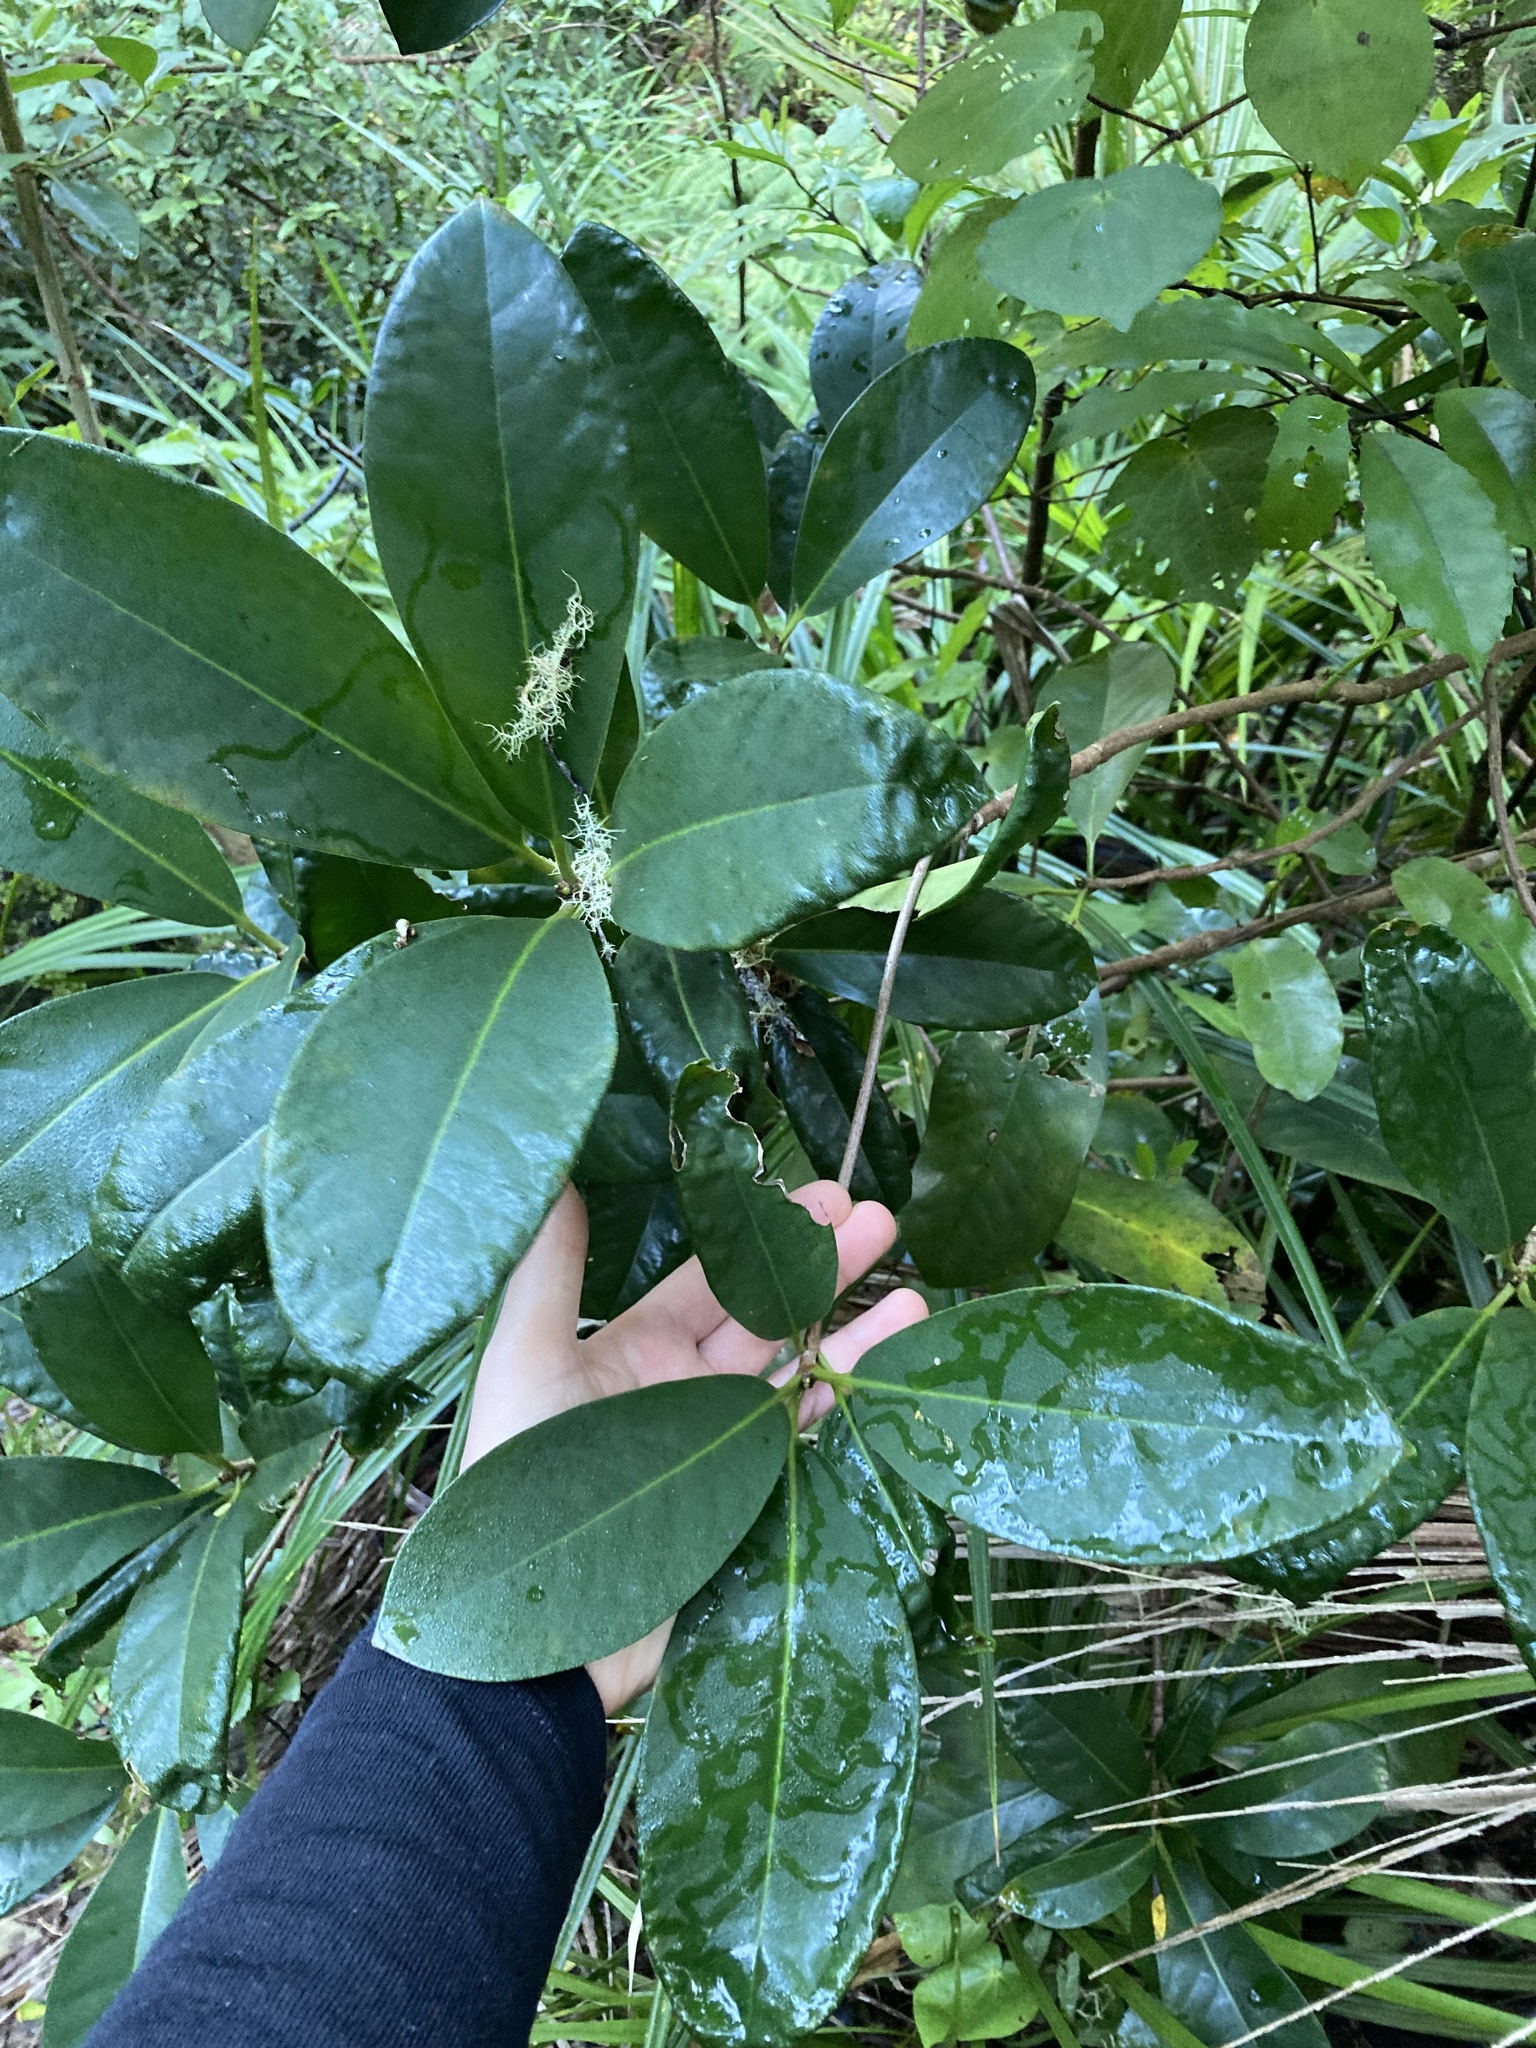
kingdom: Plantae
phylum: Tracheophyta
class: Magnoliopsida
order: Cucurbitales
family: Corynocarpaceae
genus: Corynocarpus
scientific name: Corynocarpus laevigatus
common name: New zealand laurel
